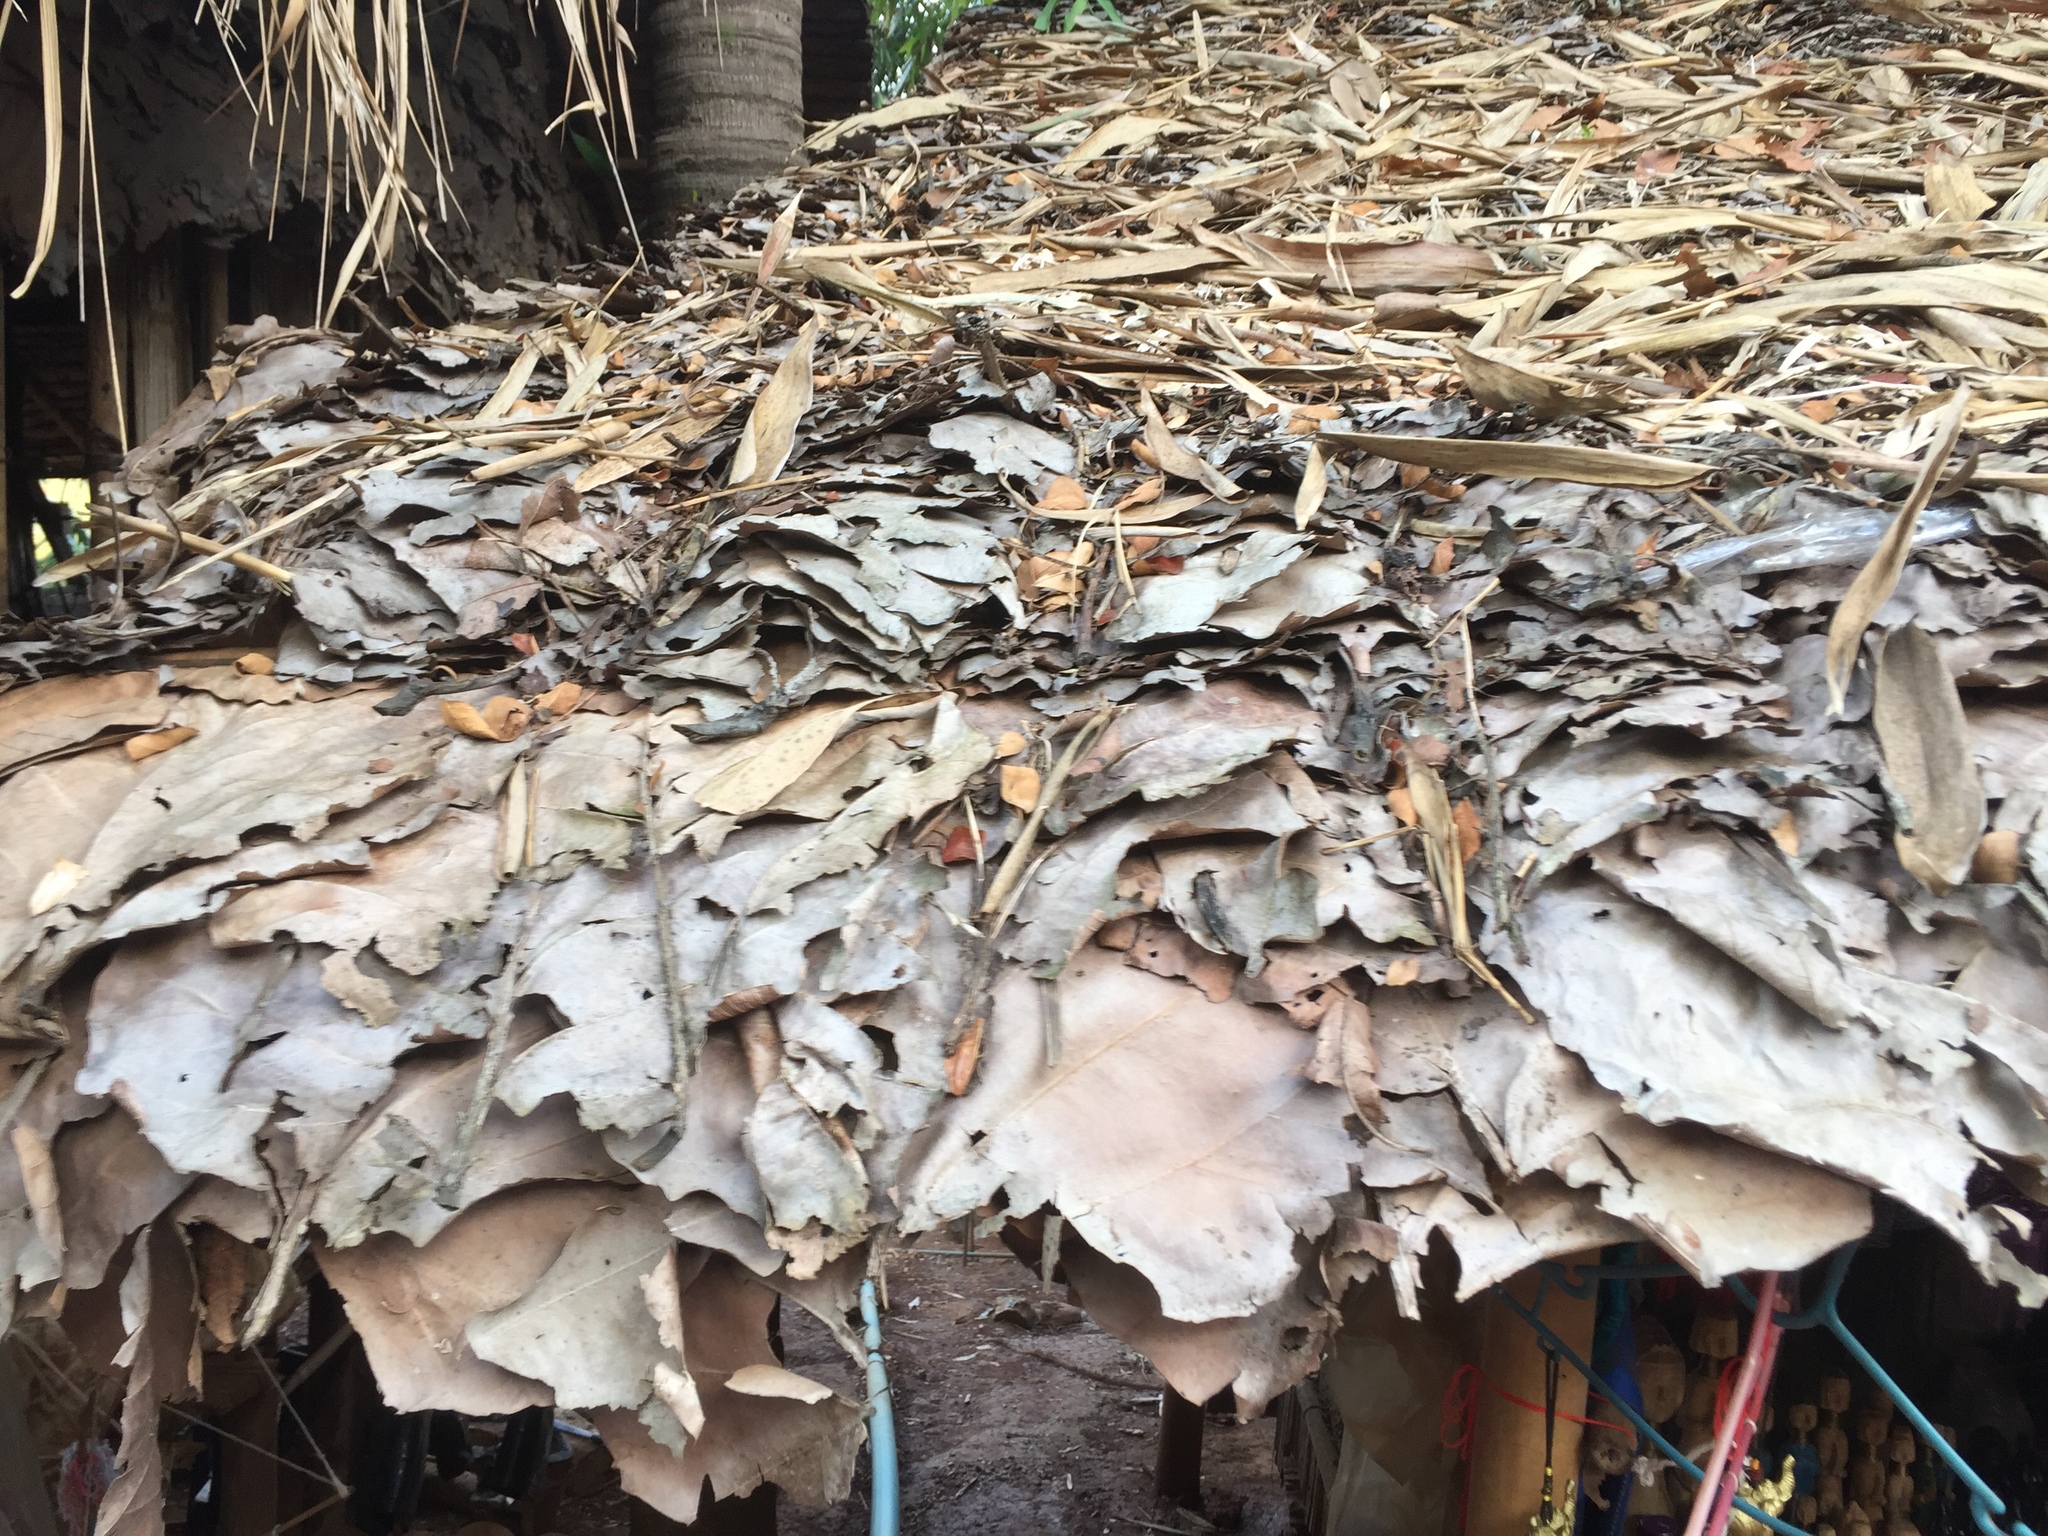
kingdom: Plantae
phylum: Tracheophyta
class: Magnoliopsida
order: Lamiales
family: Lamiaceae
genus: Tectona
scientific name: Tectona grandis
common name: Teak
